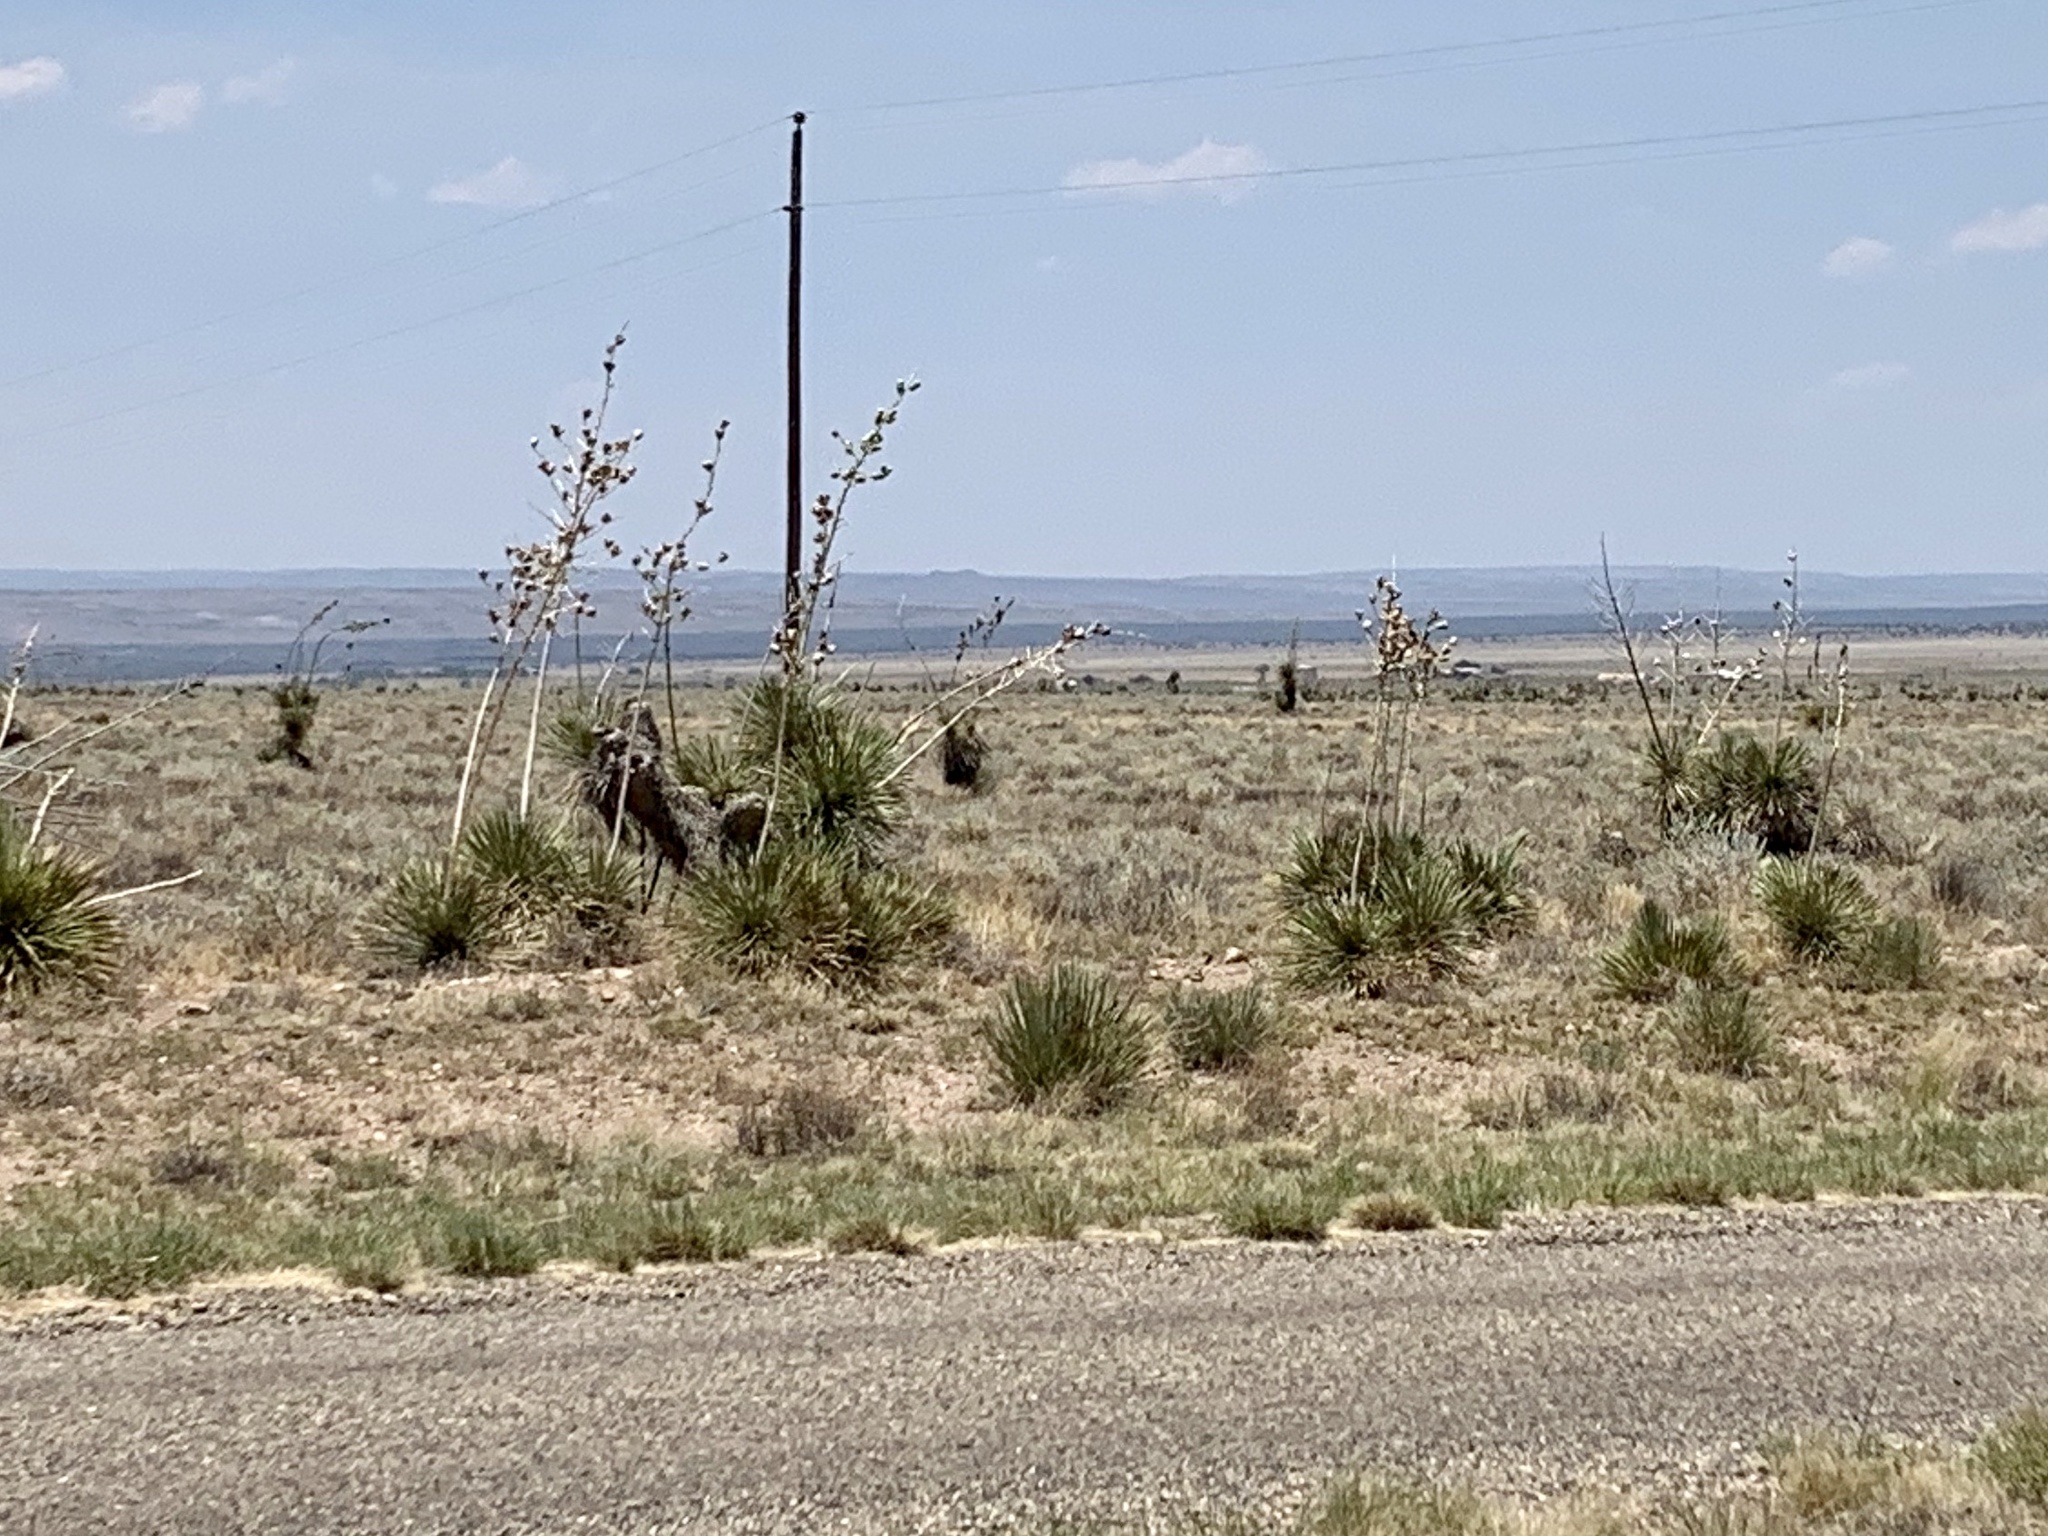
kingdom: Plantae
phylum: Tracheophyta
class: Liliopsida
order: Asparagales
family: Asparagaceae
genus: Yucca
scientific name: Yucca elata
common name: Palmella
